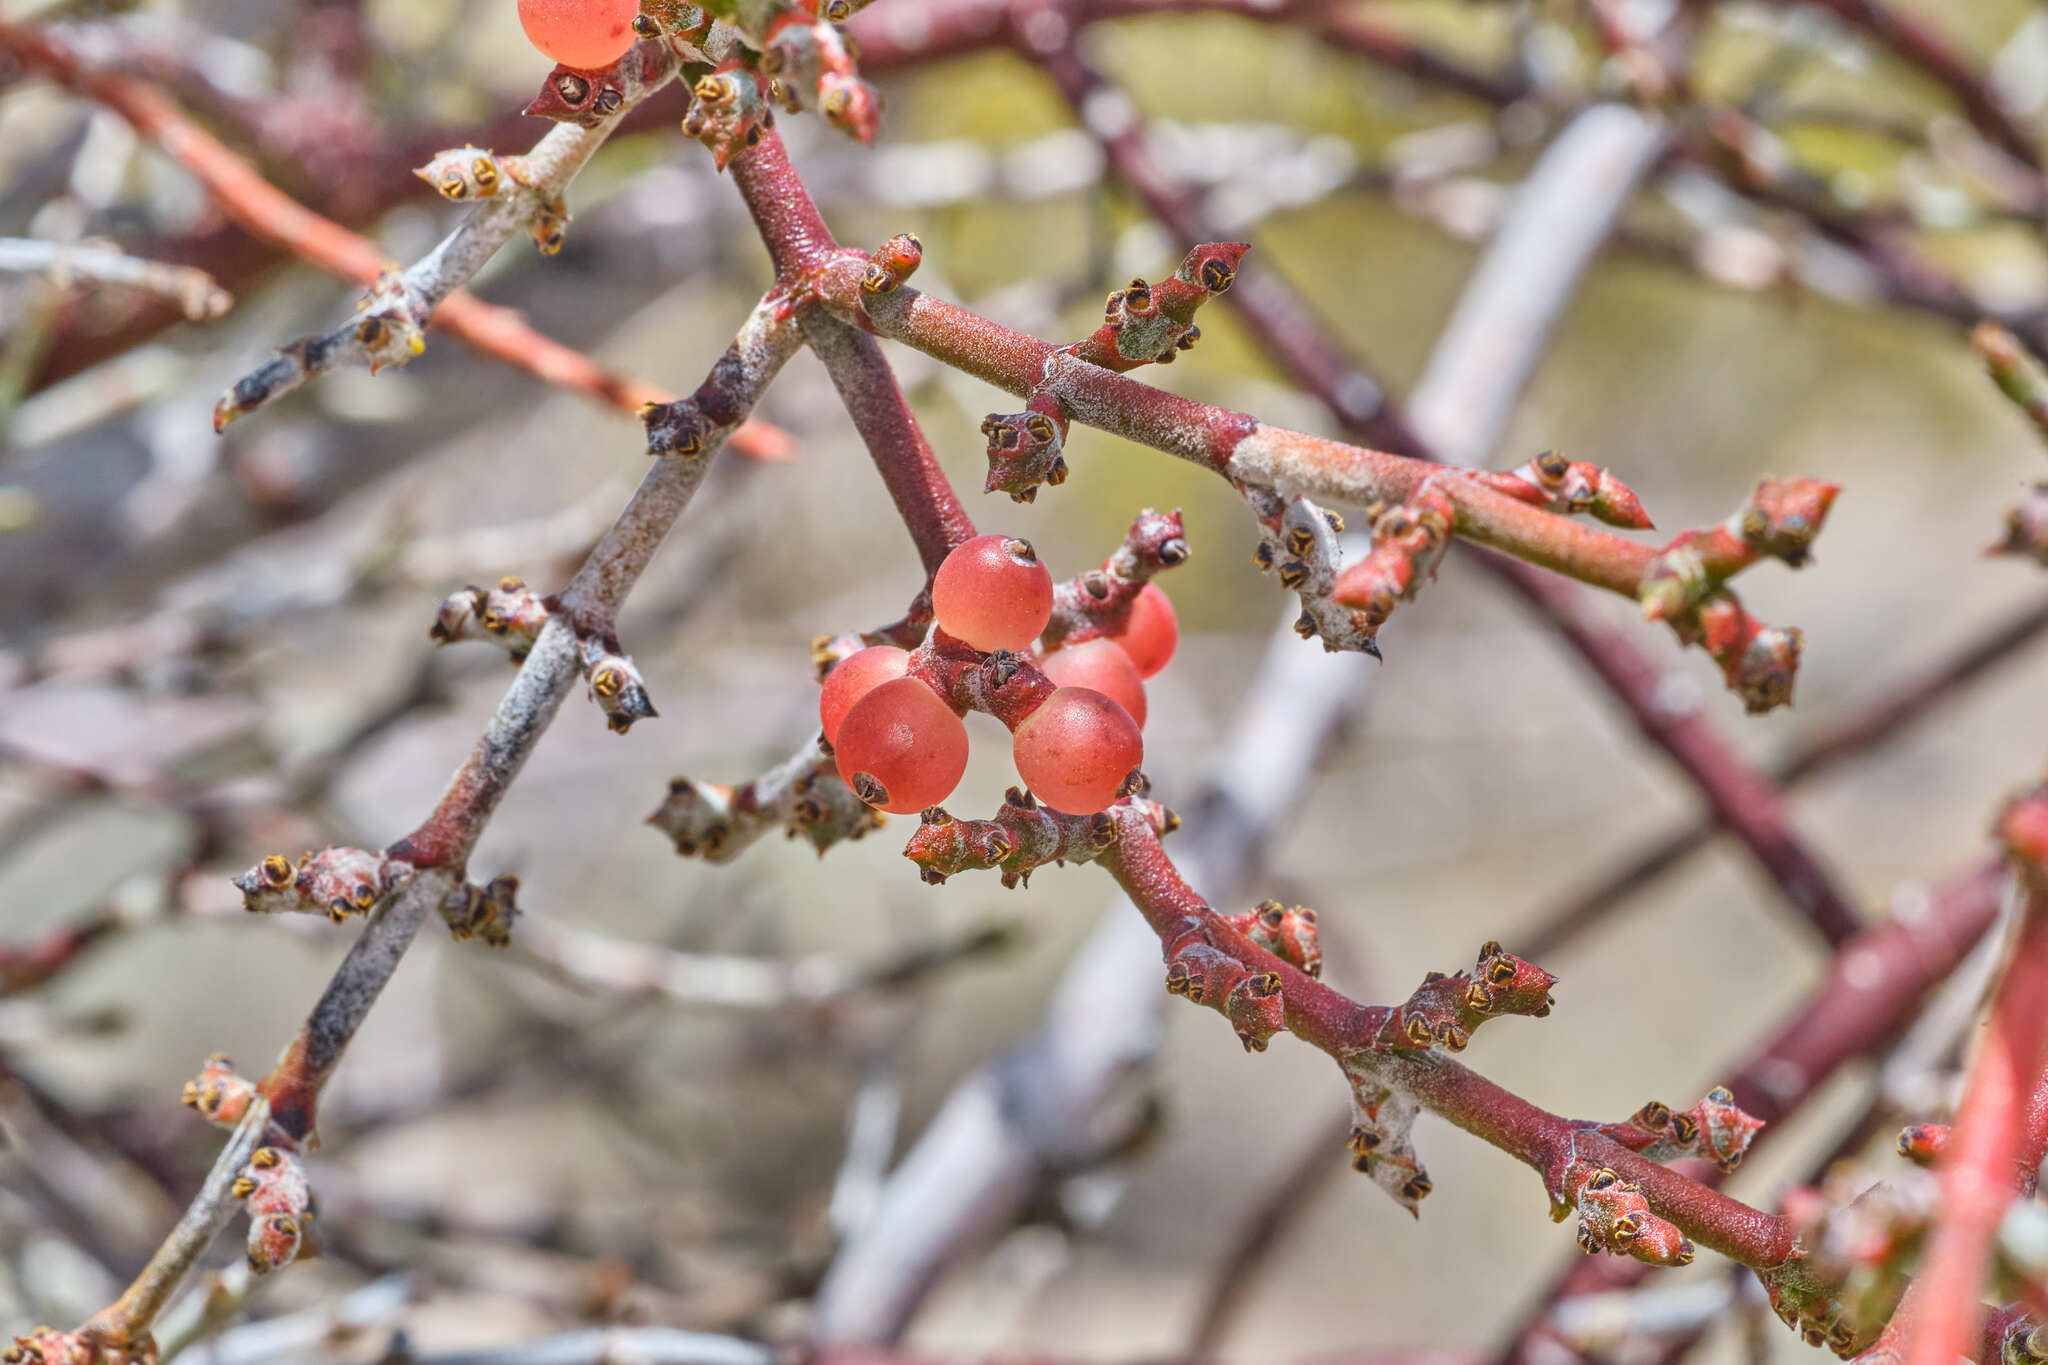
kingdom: Plantae
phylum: Tracheophyta
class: Magnoliopsida
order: Santalales
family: Viscaceae
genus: Phoradendron
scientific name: Phoradendron californicum
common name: Acacia mistletoe
